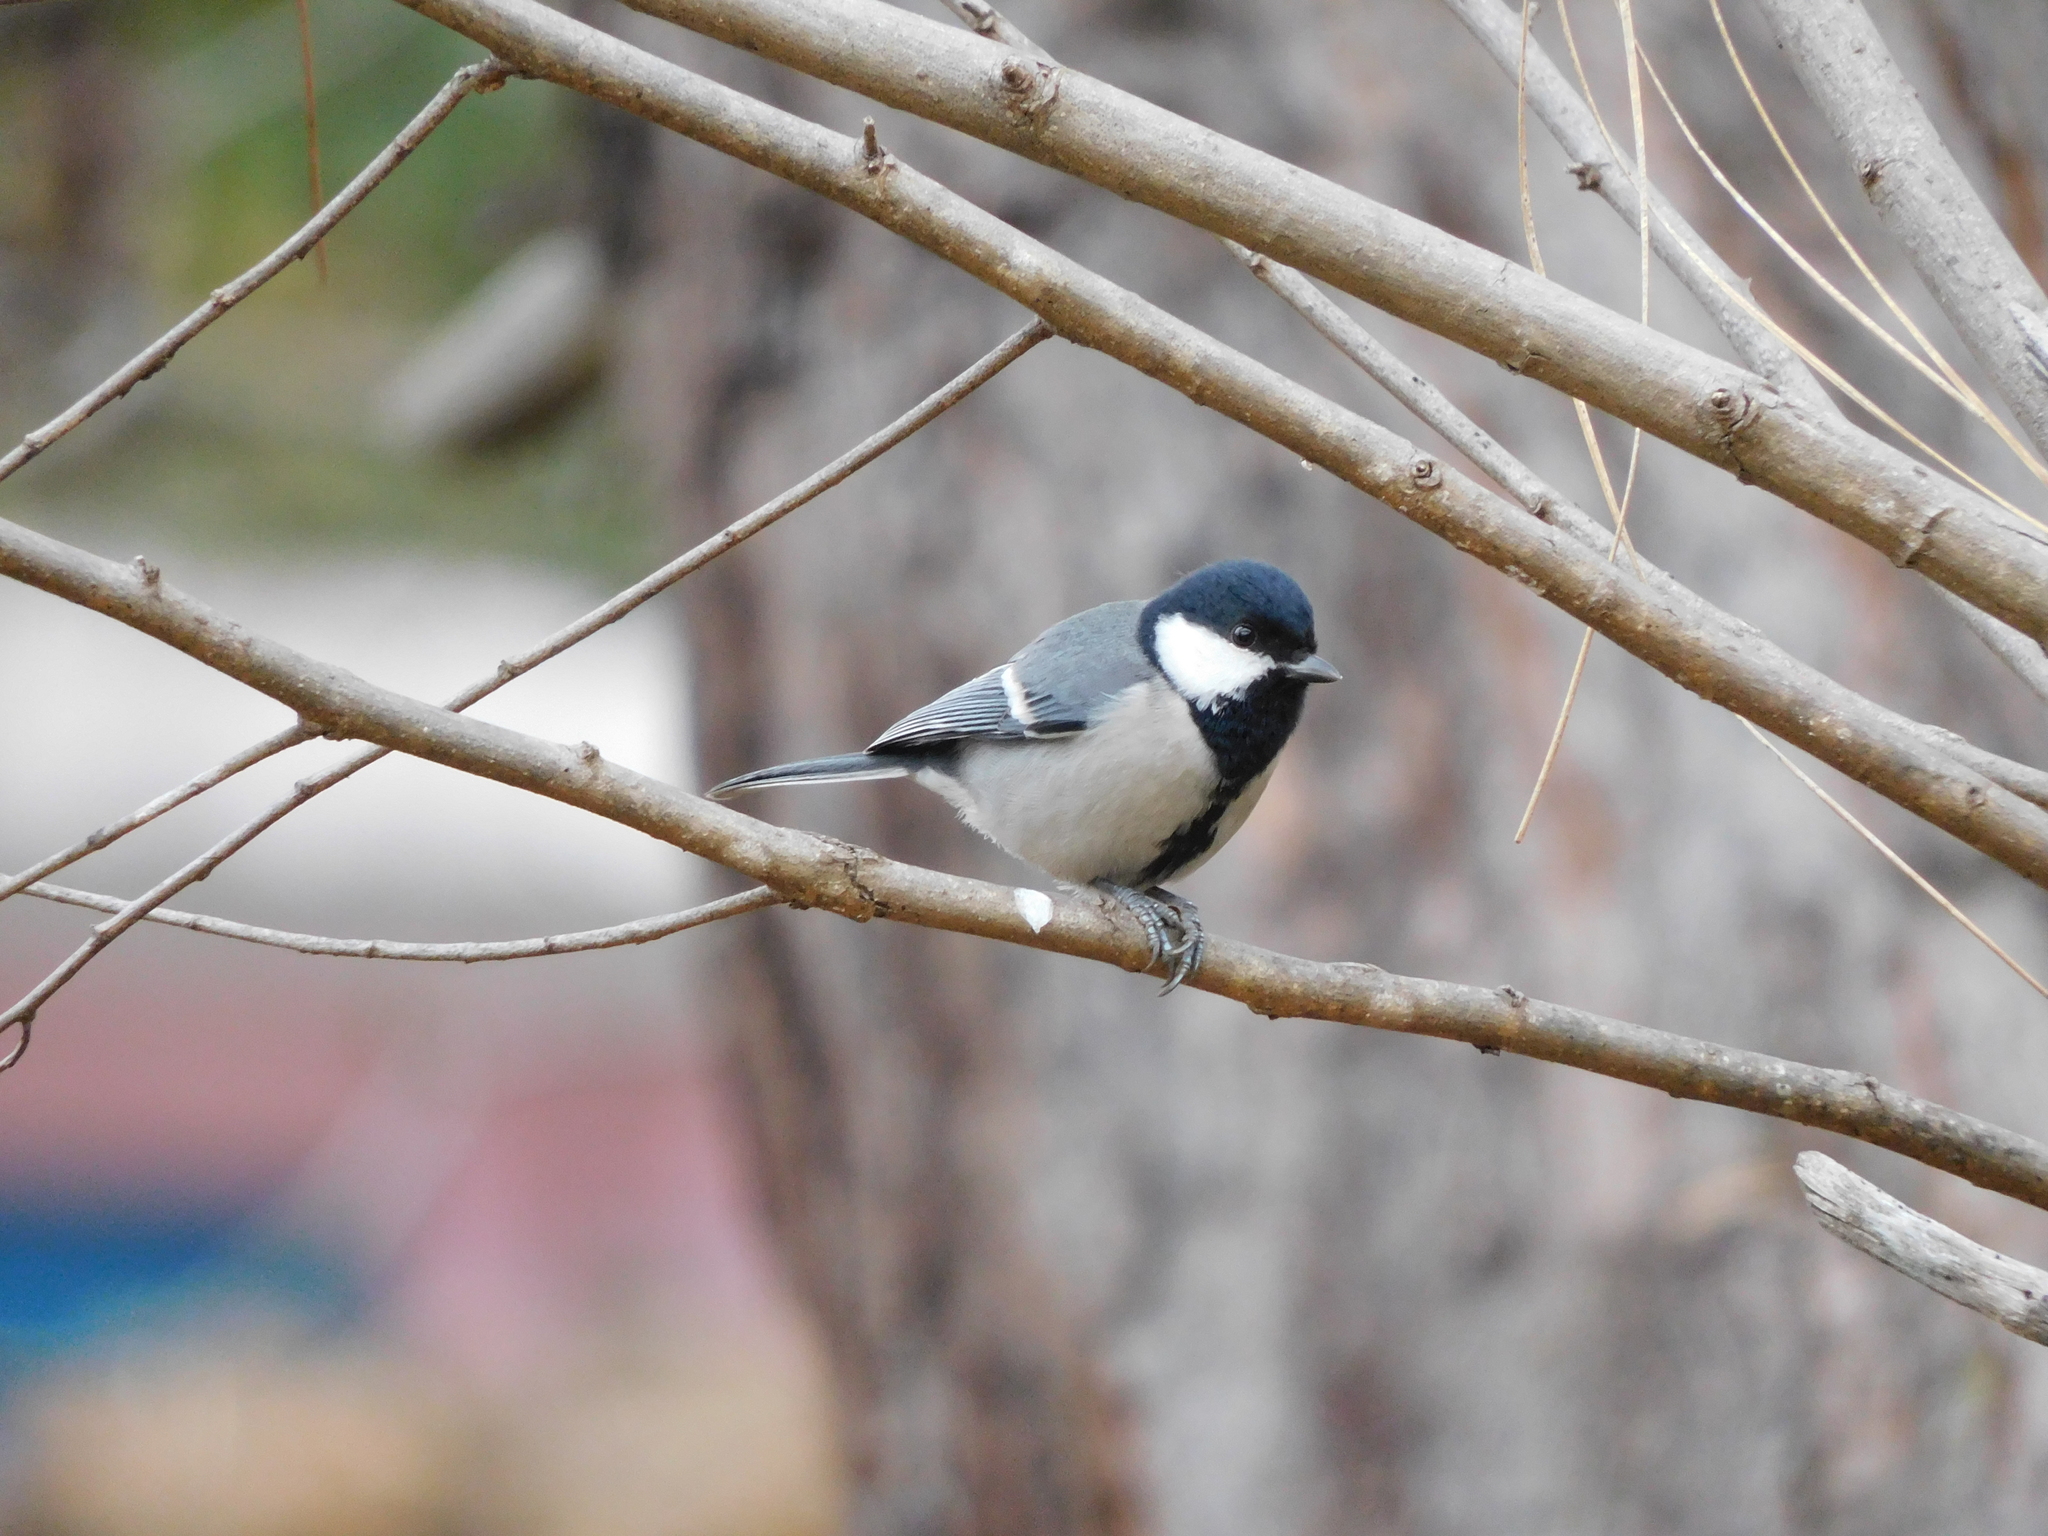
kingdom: Animalia
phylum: Chordata
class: Aves
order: Passeriformes
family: Paridae
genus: Parus
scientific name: Parus cinereus
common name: Cinereous tit
